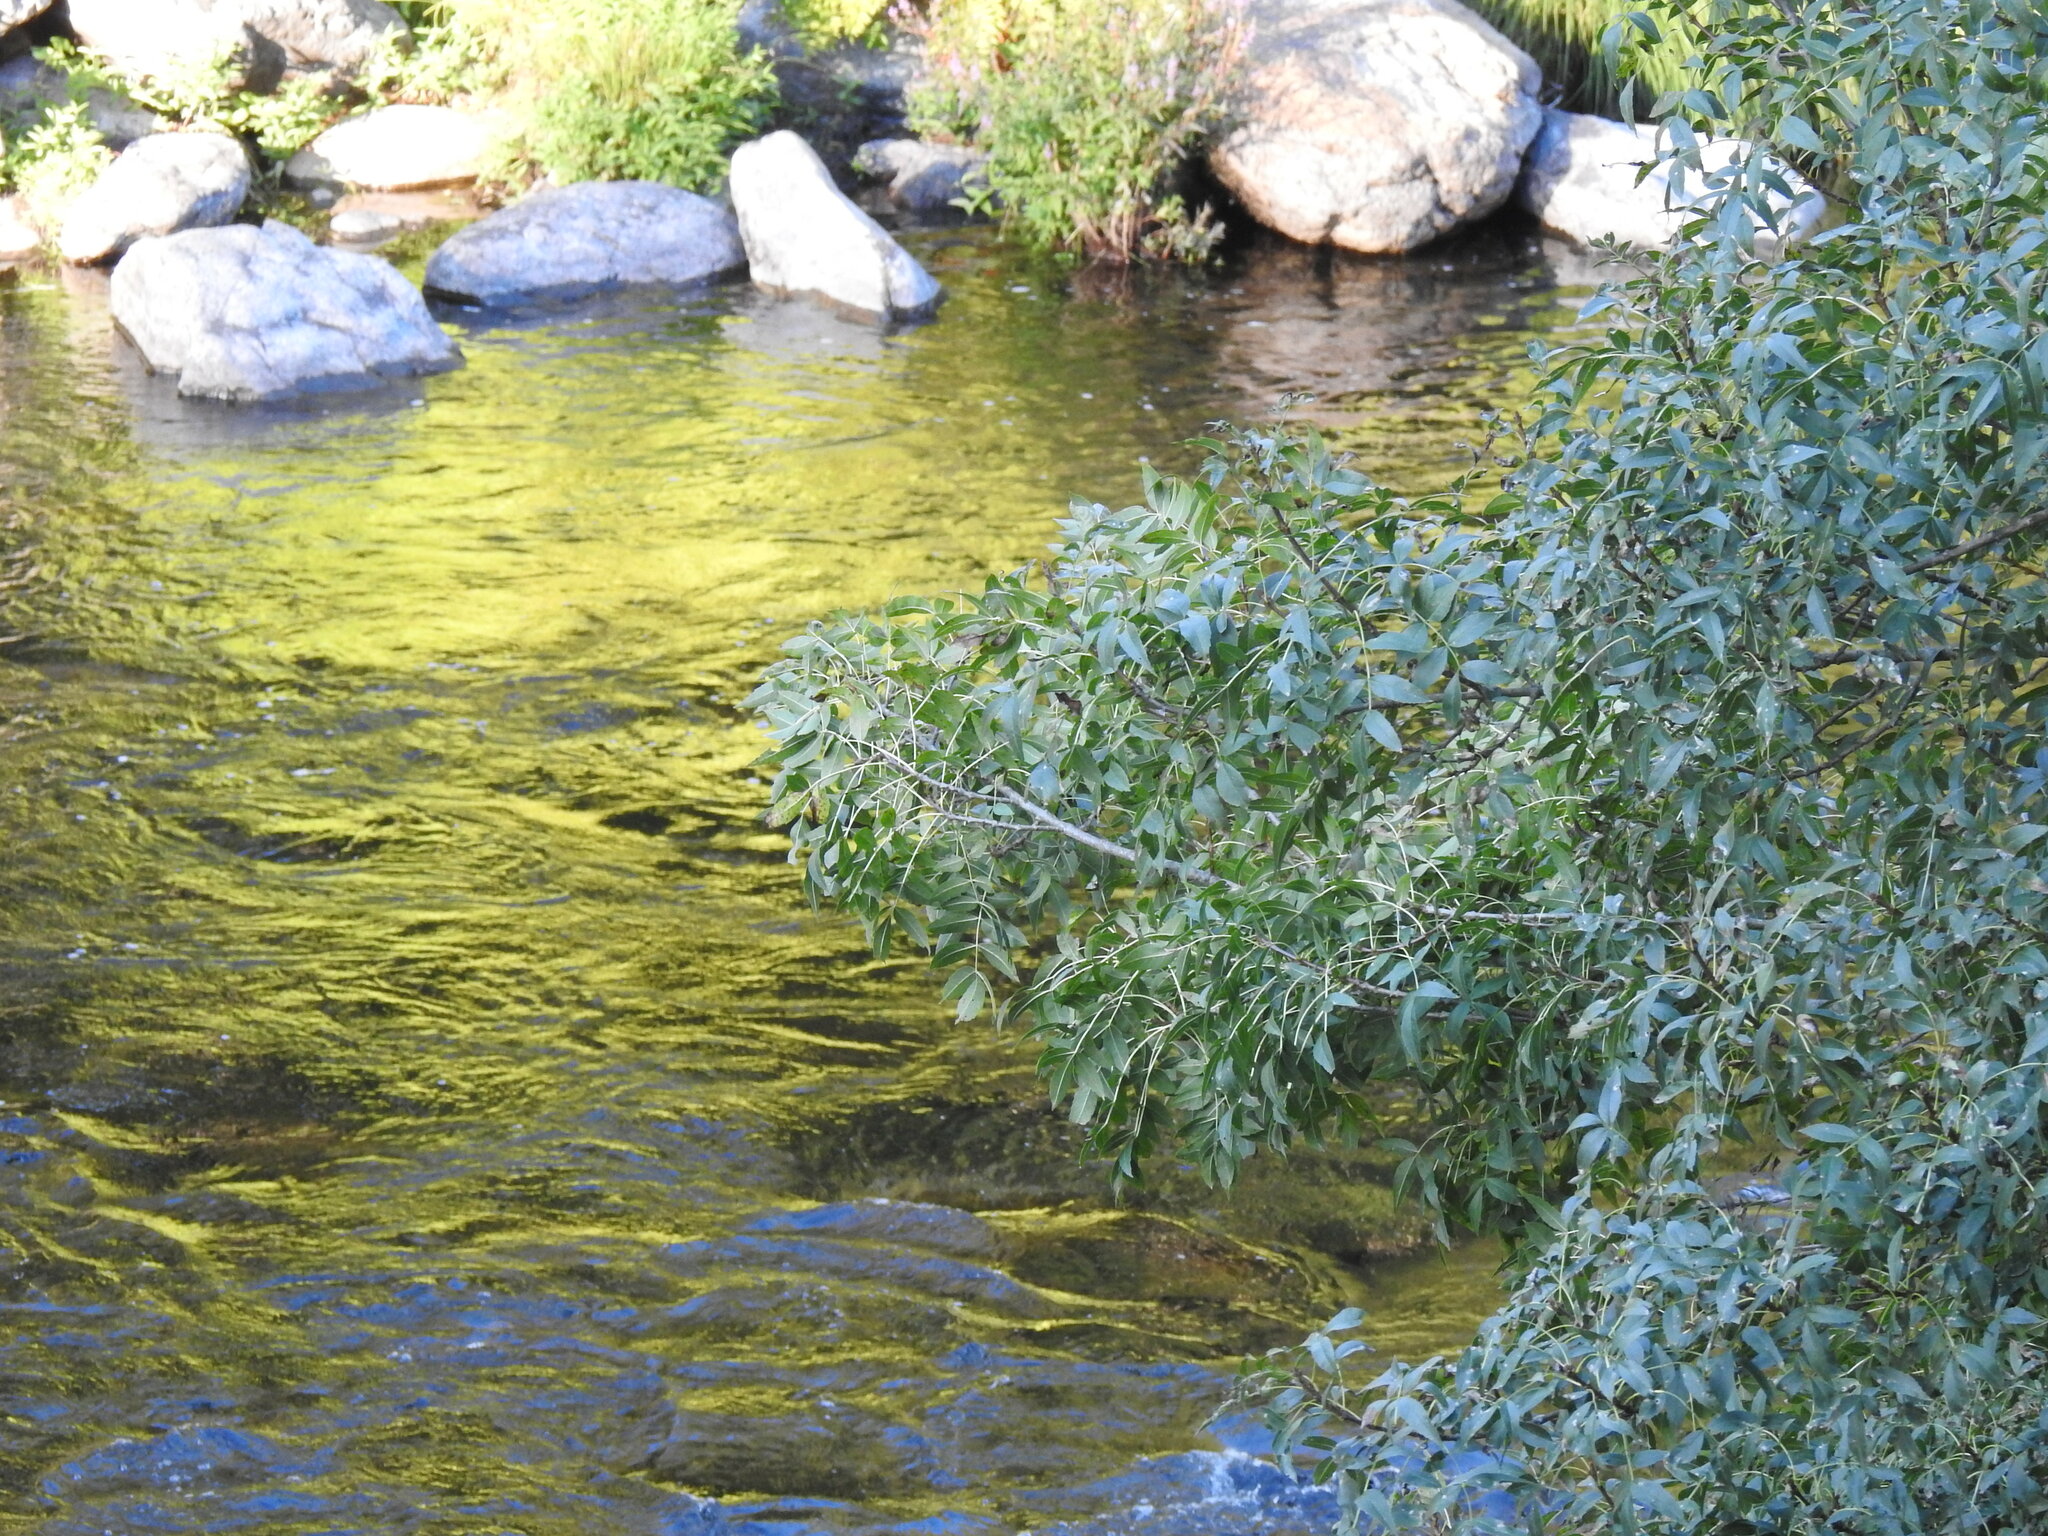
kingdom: Plantae
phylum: Tracheophyta
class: Magnoliopsida
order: Lamiales
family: Oleaceae
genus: Fraxinus
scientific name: Fraxinus angustifolia
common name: Narrow-leafed ash
